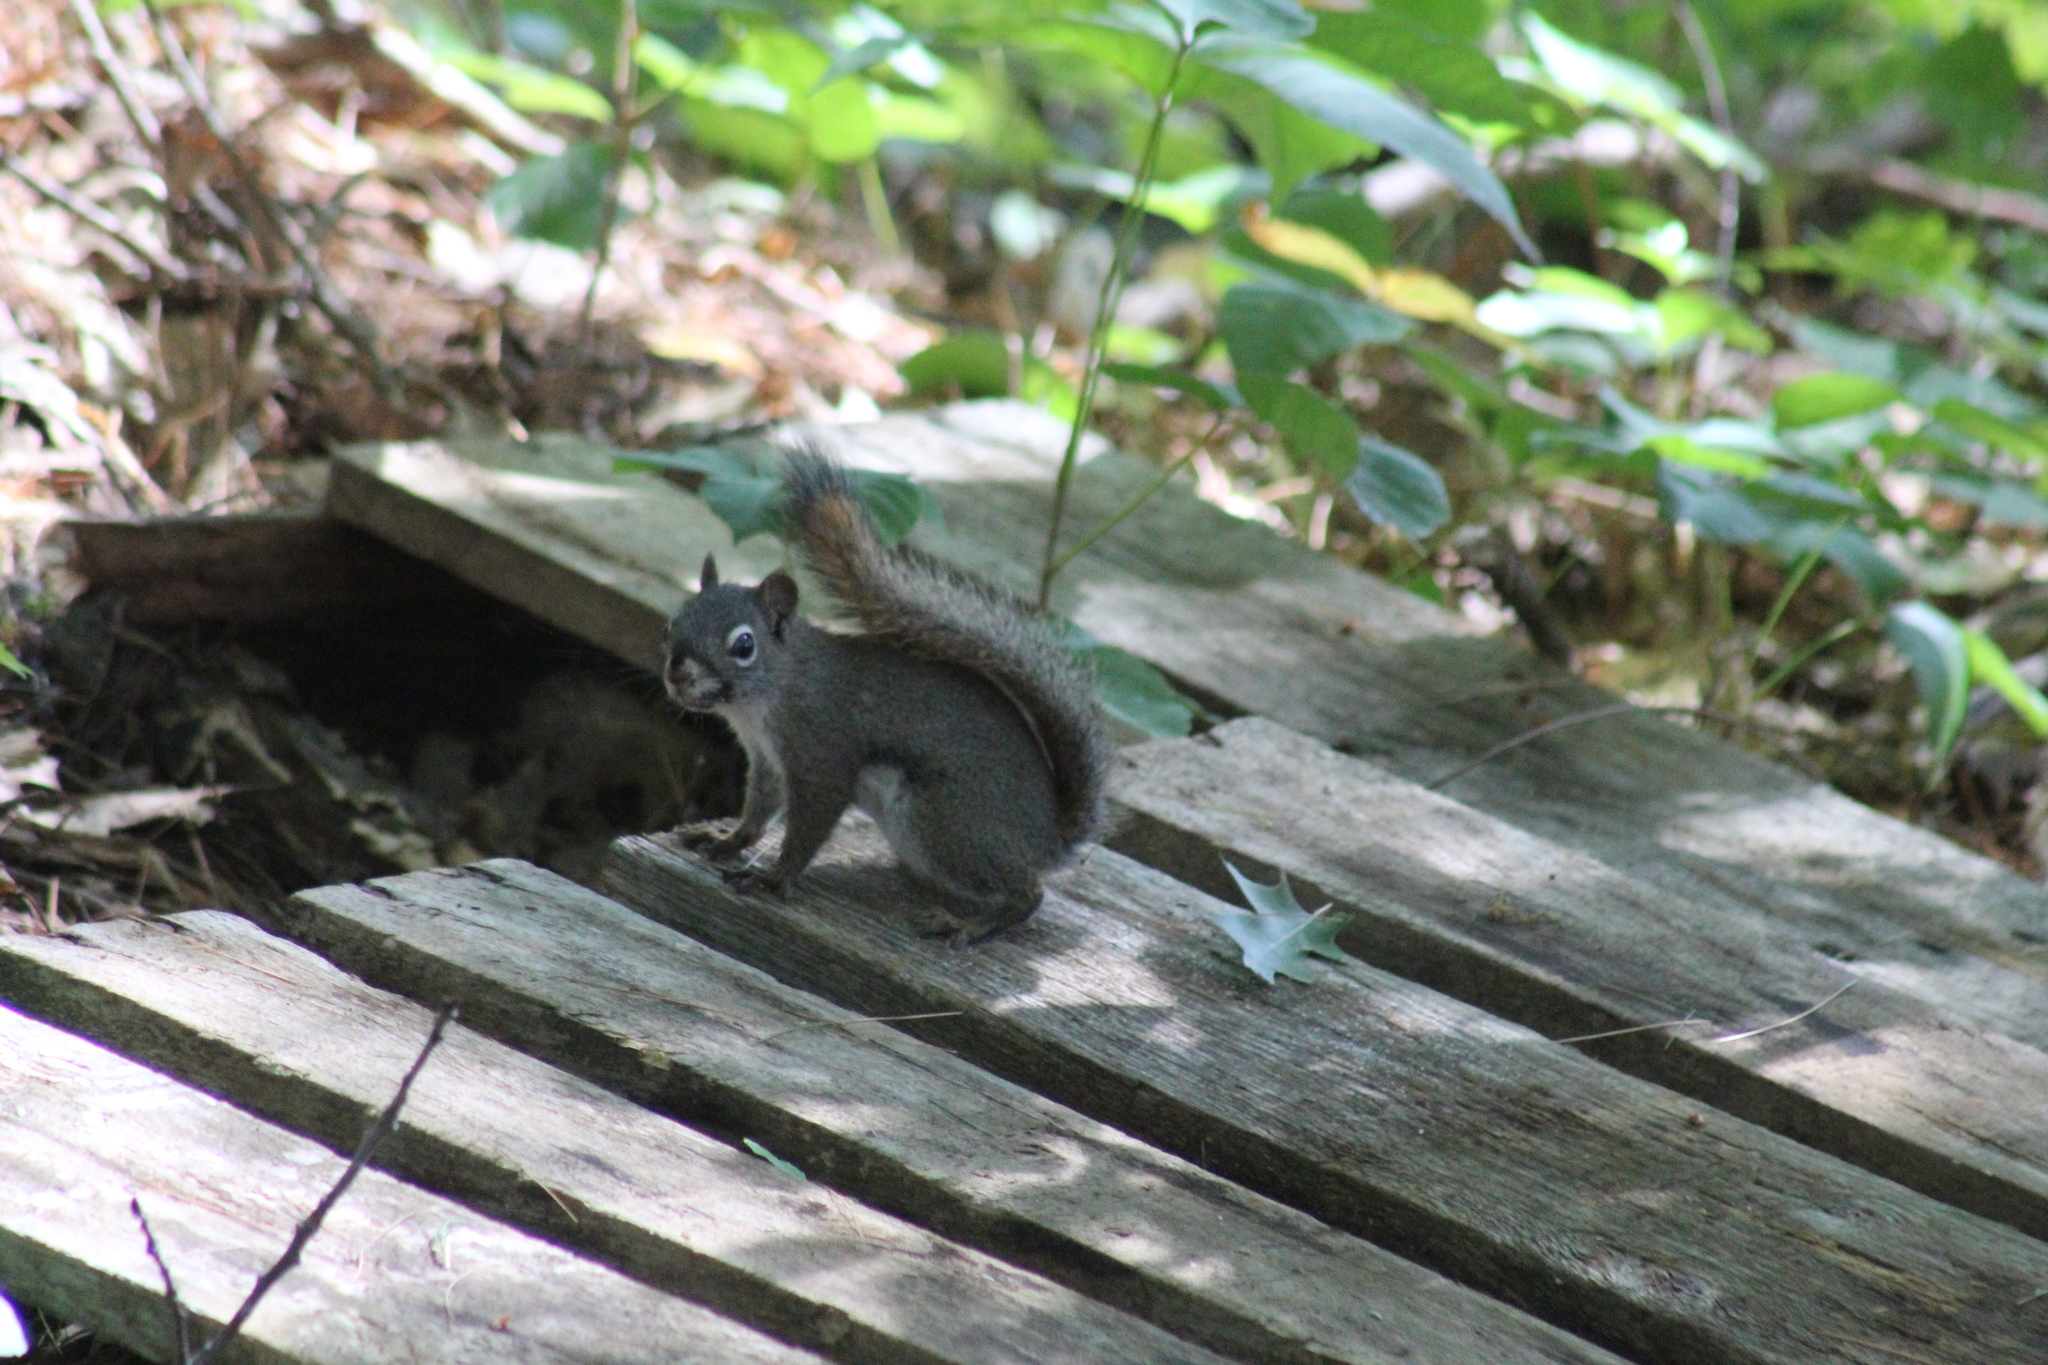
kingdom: Animalia
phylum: Chordata
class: Mammalia
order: Rodentia
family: Sciuridae
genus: Tamiasciurus
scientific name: Tamiasciurus hudsonicus
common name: Red squirrel
